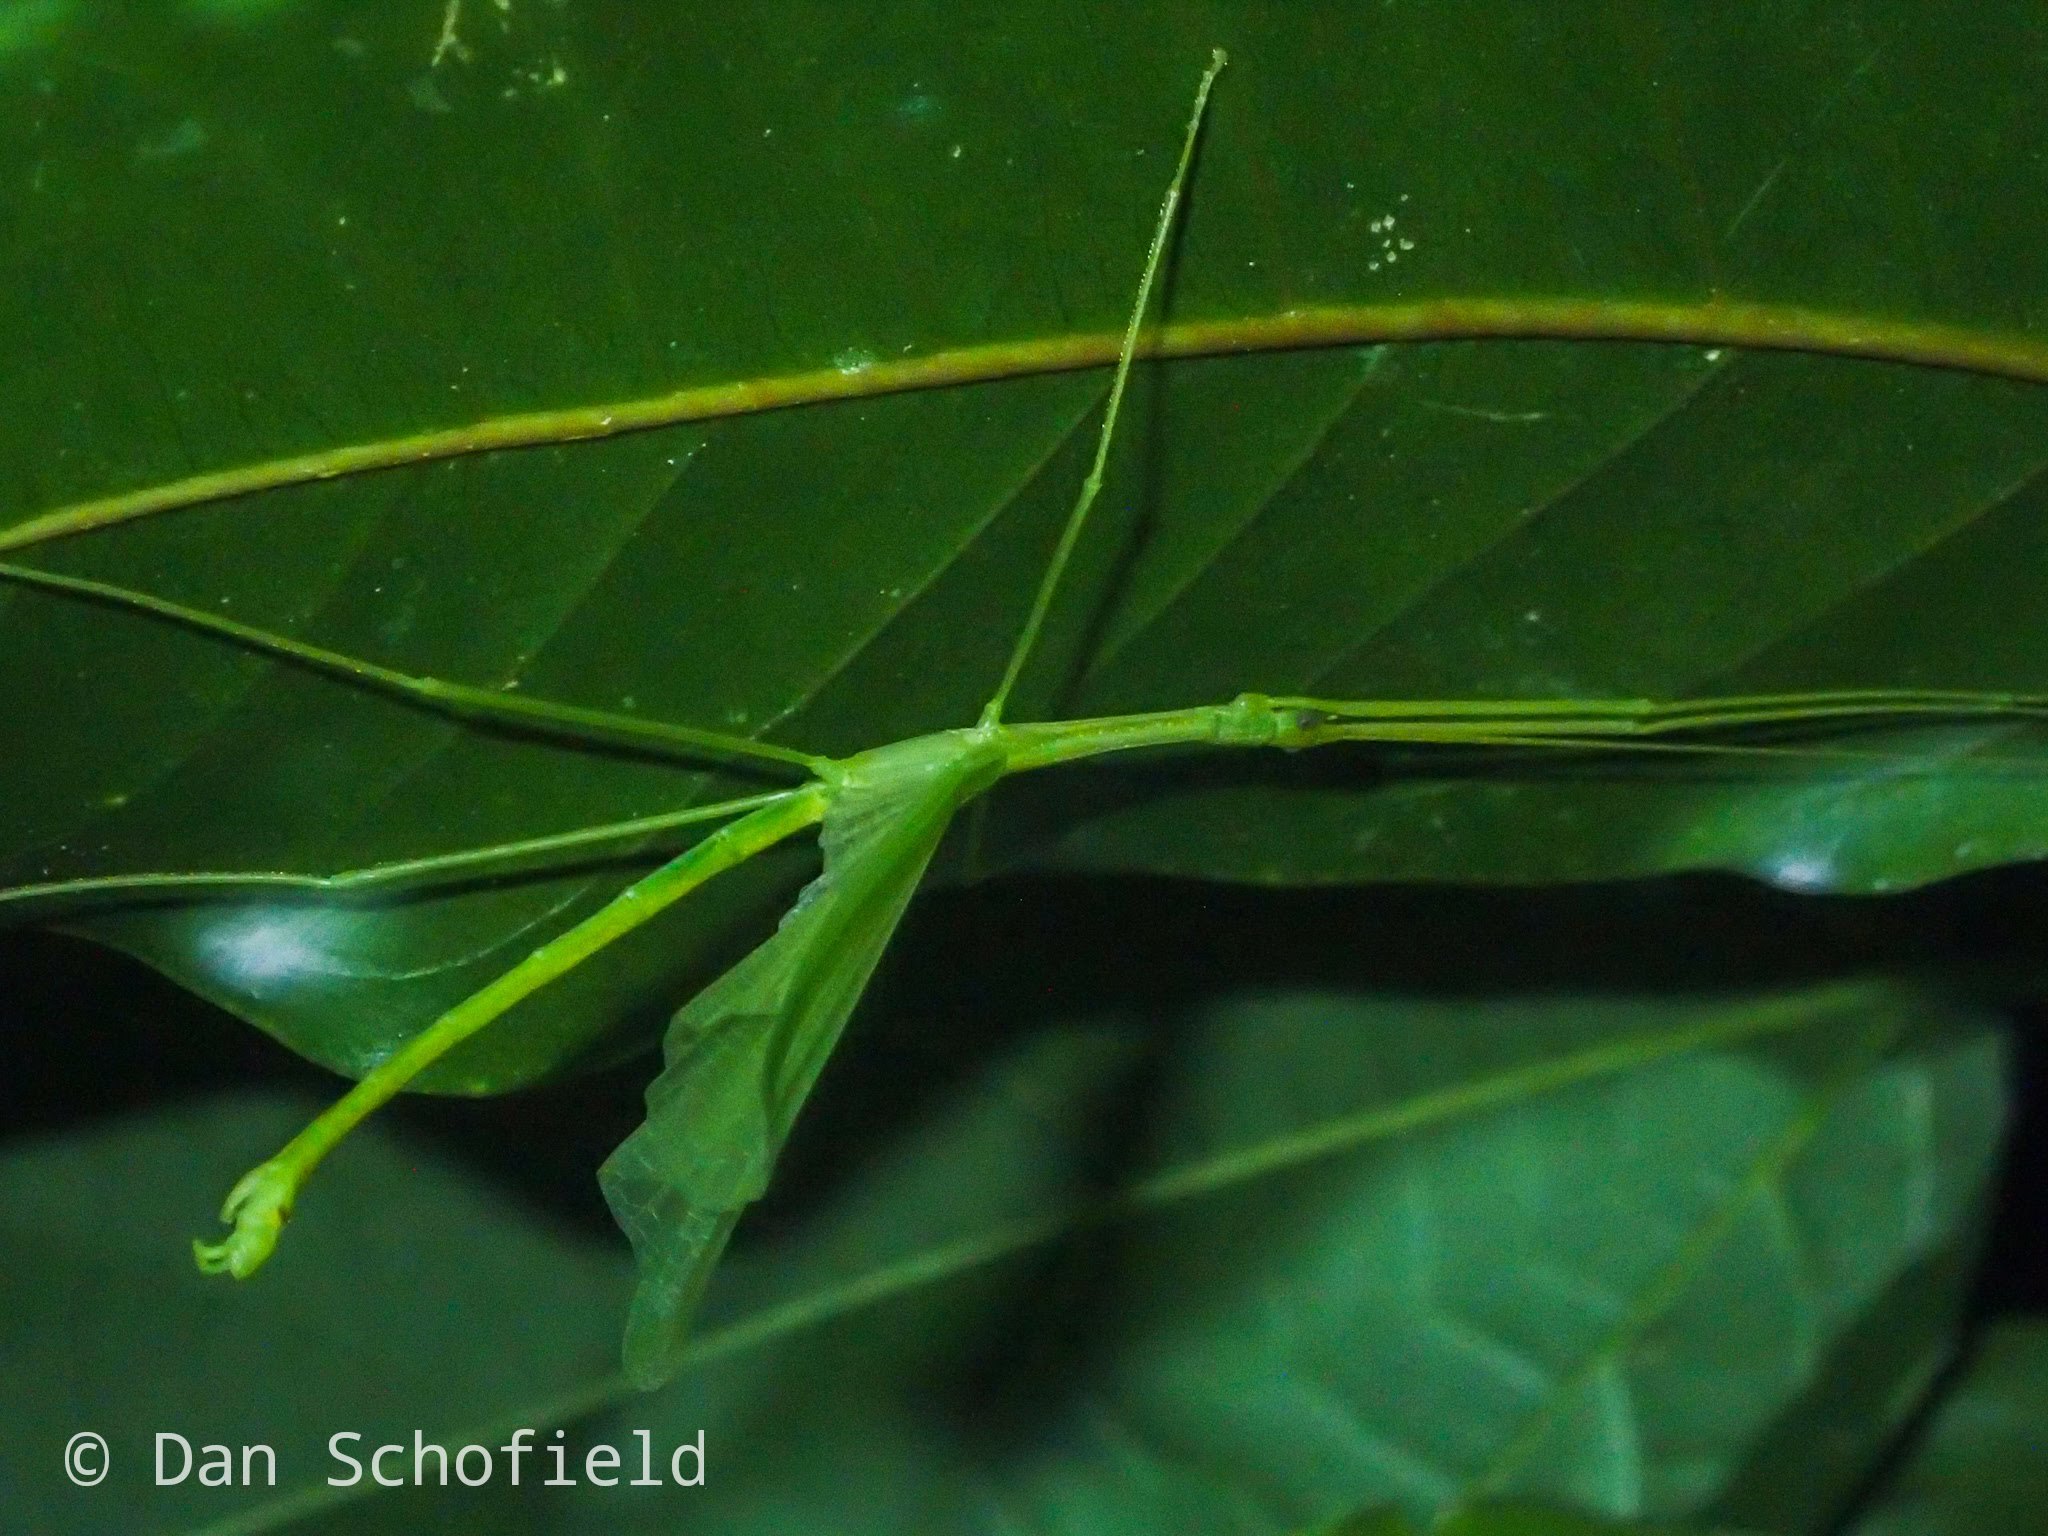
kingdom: Animalia
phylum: Arthropoda
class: Insecta
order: Phasmida
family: Lonchodidae
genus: Singaporoidea
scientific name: Singaporoidea normalis
